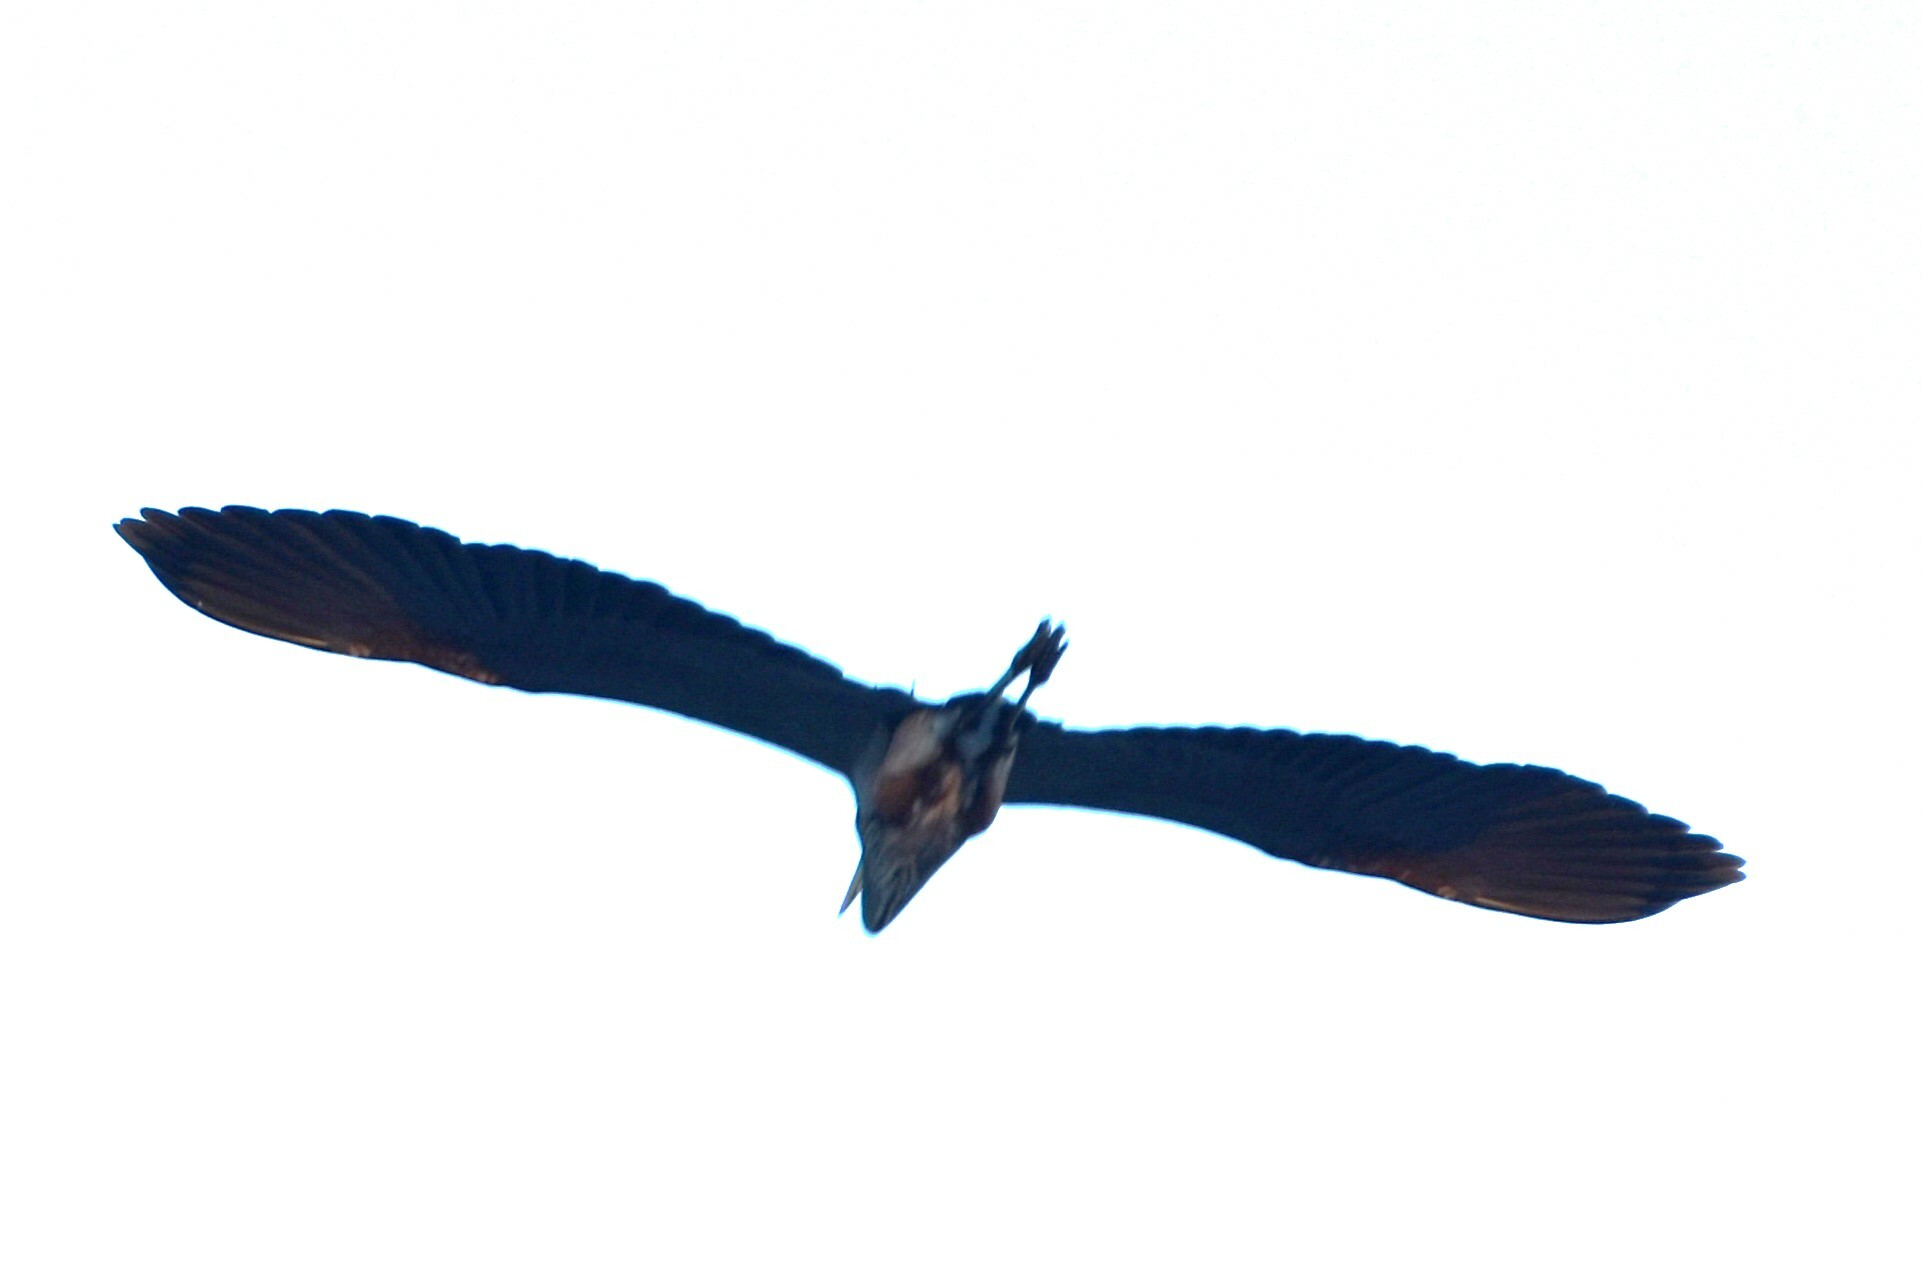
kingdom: Animalia
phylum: Chordata
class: Aves
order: Pelecaniformes
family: Ardeidae
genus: Ardea
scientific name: Ardea herodias
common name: Great blue heron
